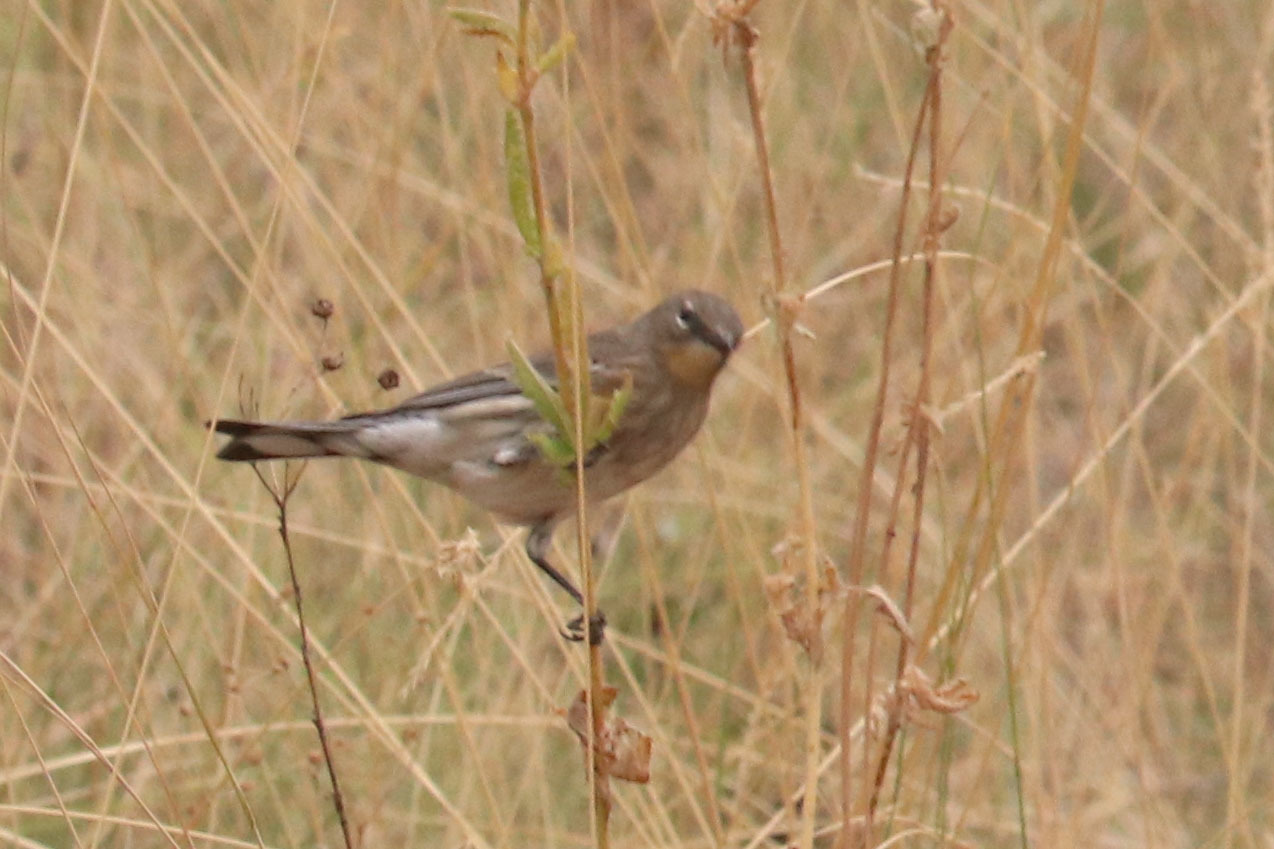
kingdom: Animalia
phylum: Chordata
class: Aves
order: Passeriformes
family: Parulidae
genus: Setophaga
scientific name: Setophaga auduboni
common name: Audubon's warbler
